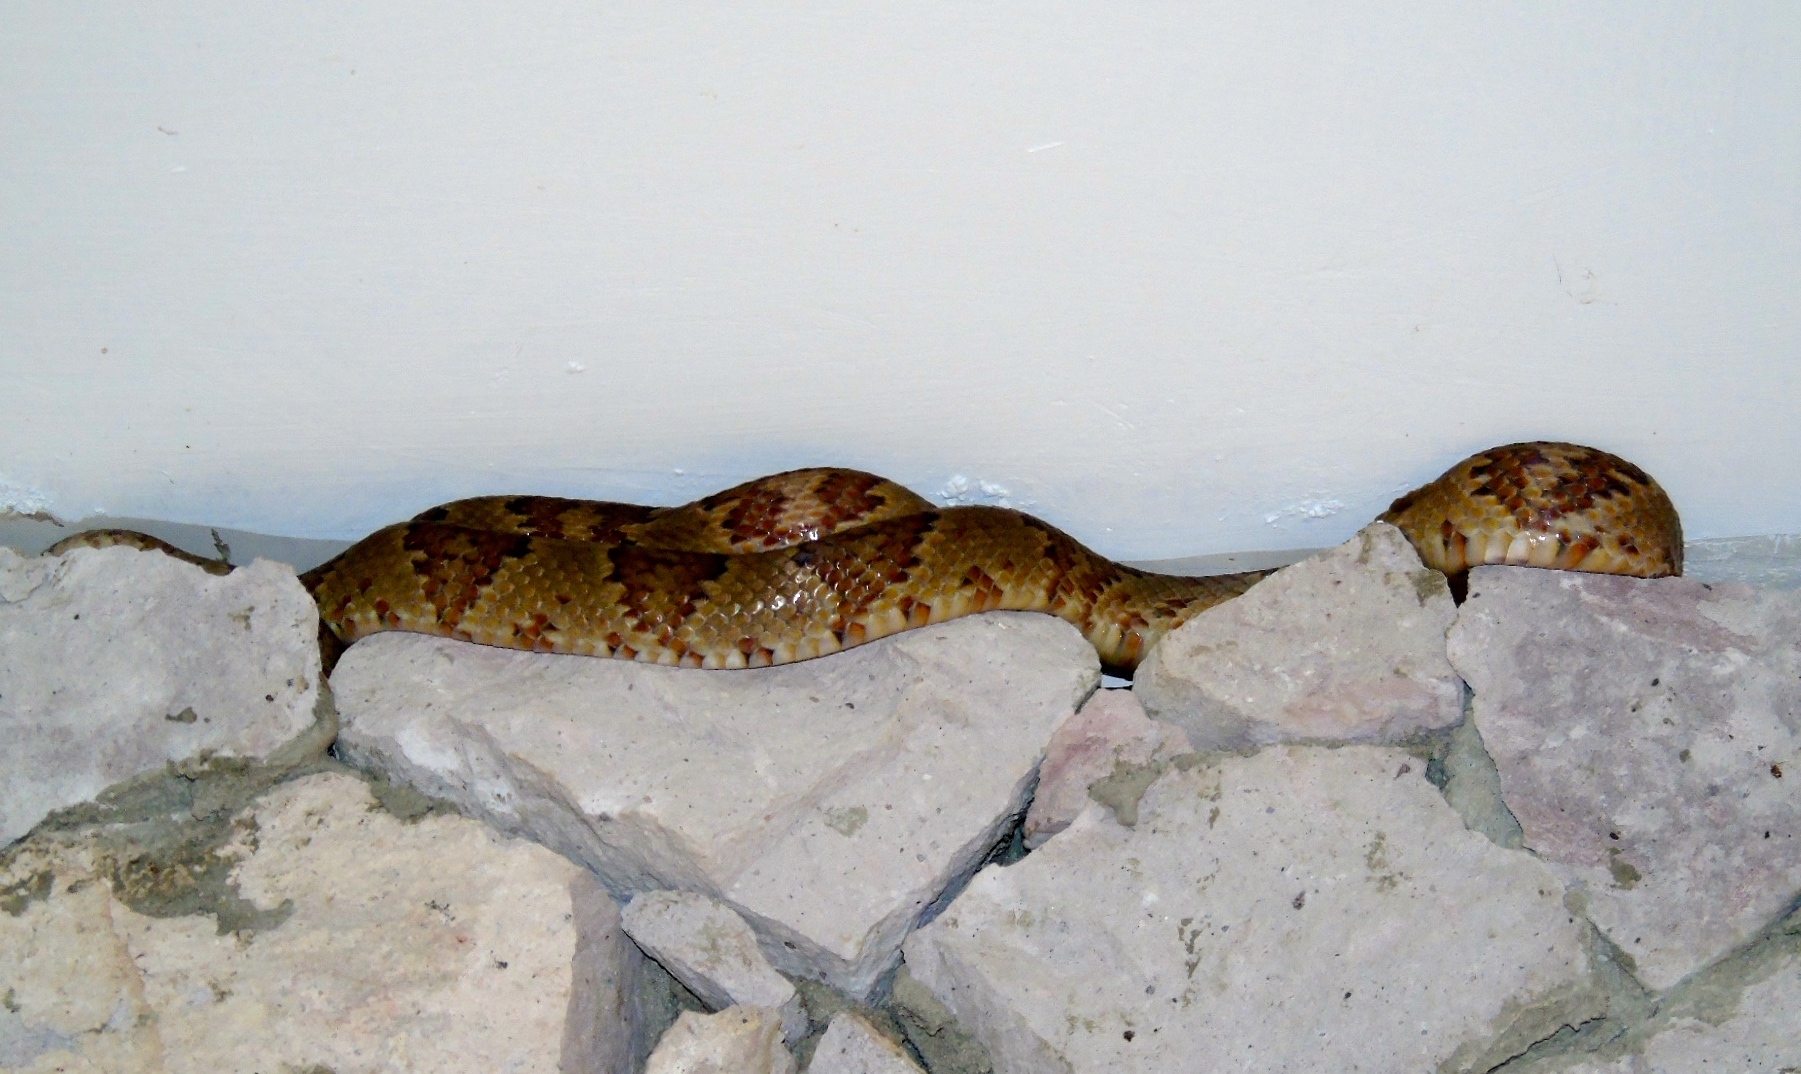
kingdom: Animalia
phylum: Chordata
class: Squamata
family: Colubridae
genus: Trimorphodon
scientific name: Trimorphodon paucimaculatus
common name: Sinaloan lyresnake
